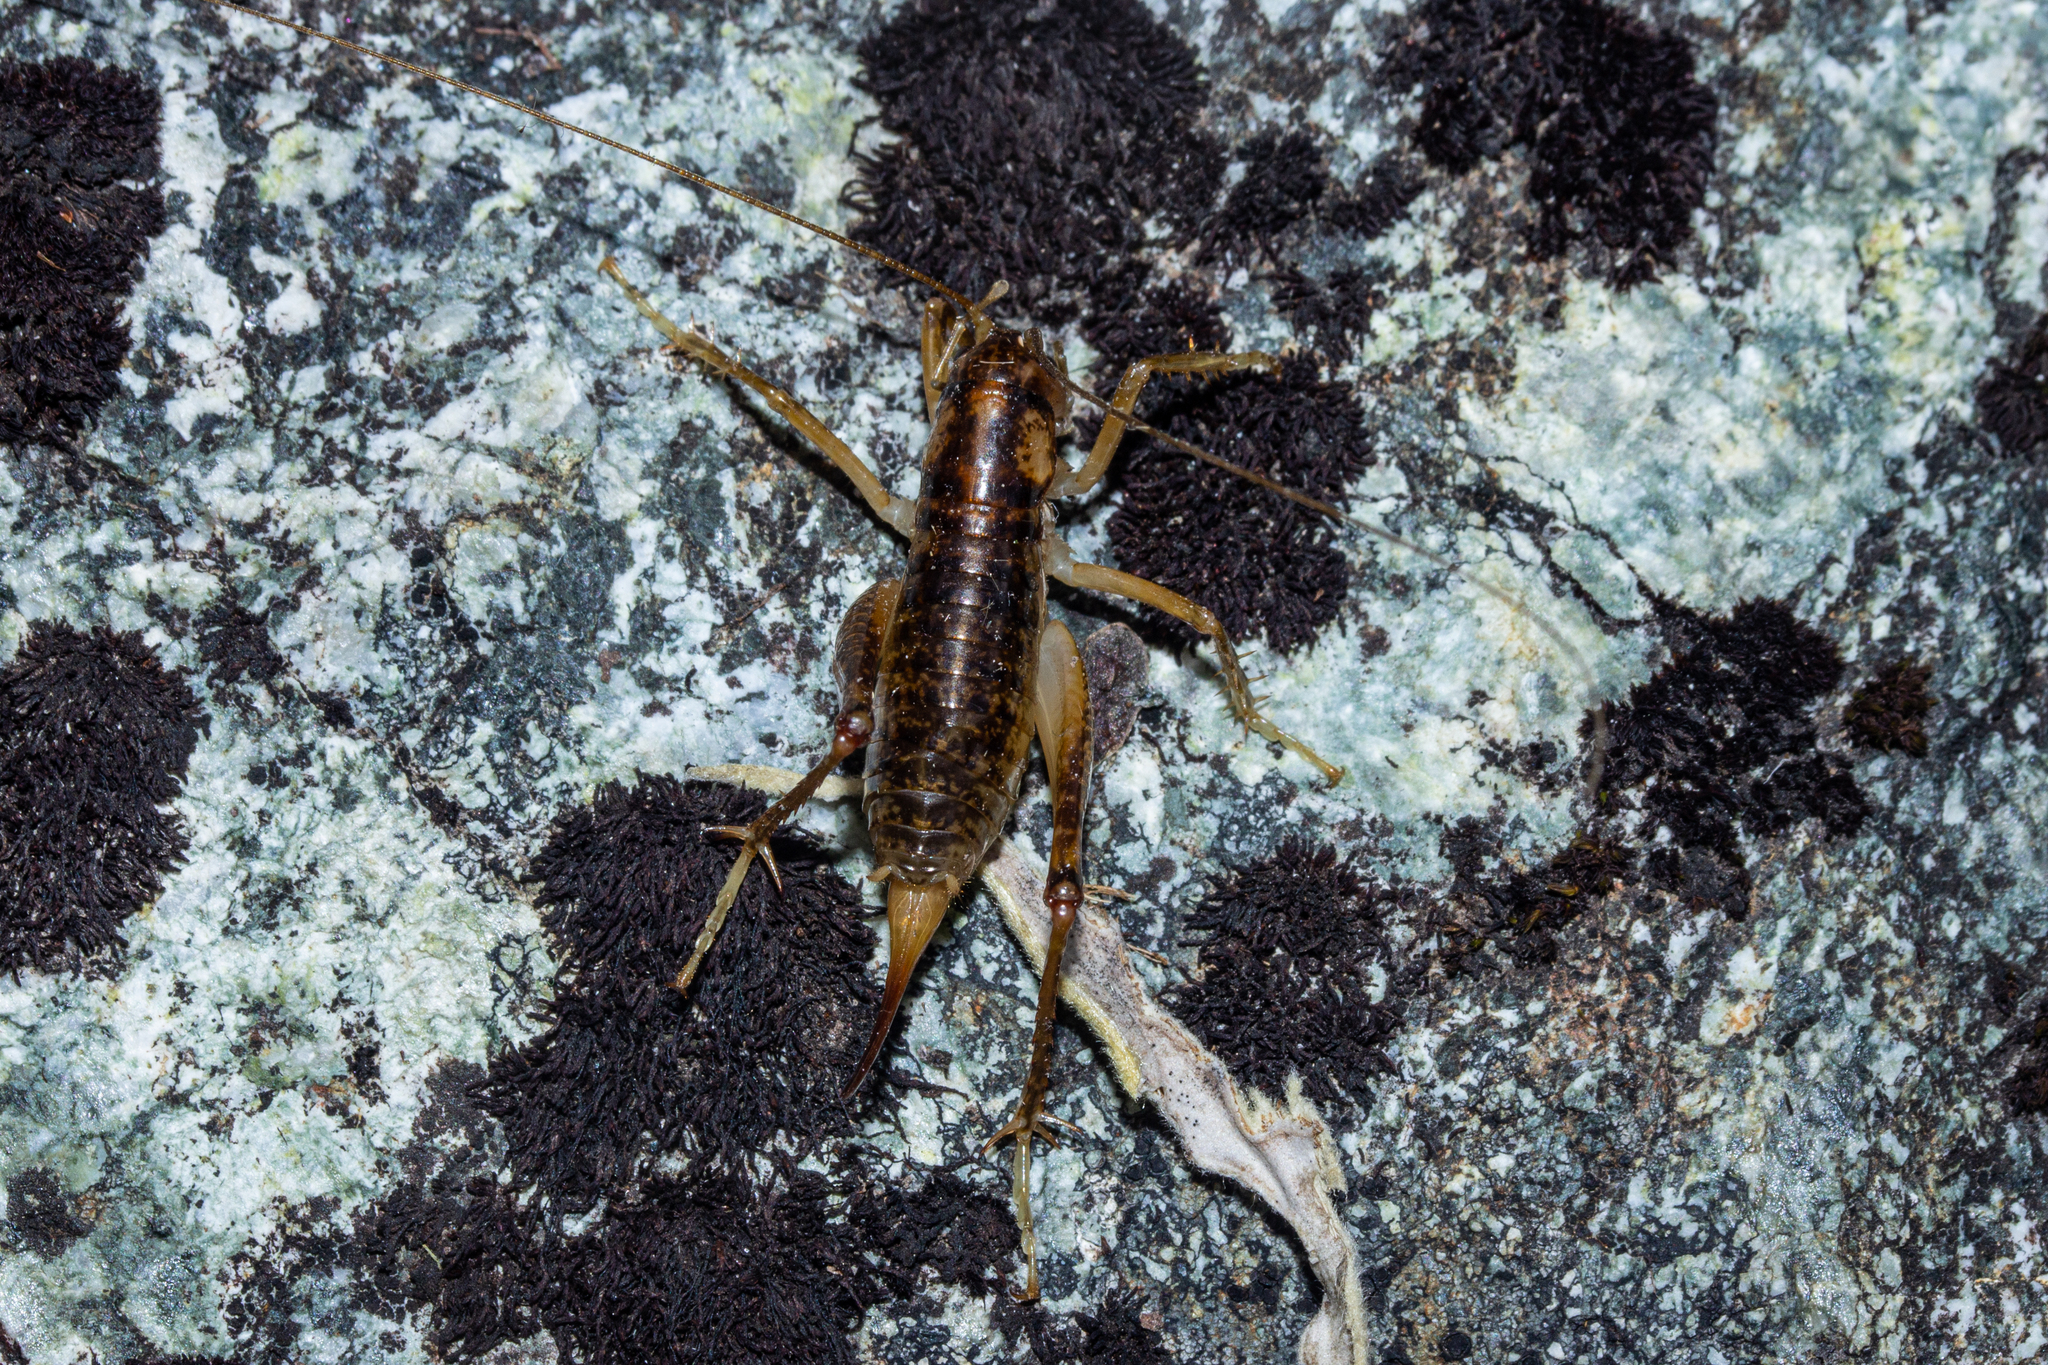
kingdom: Animalia
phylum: Arthropoda
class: Insecta
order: Orthoptera
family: Anostostomatidae
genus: Hemiandrus
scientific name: Hemiandrus maculifrons
